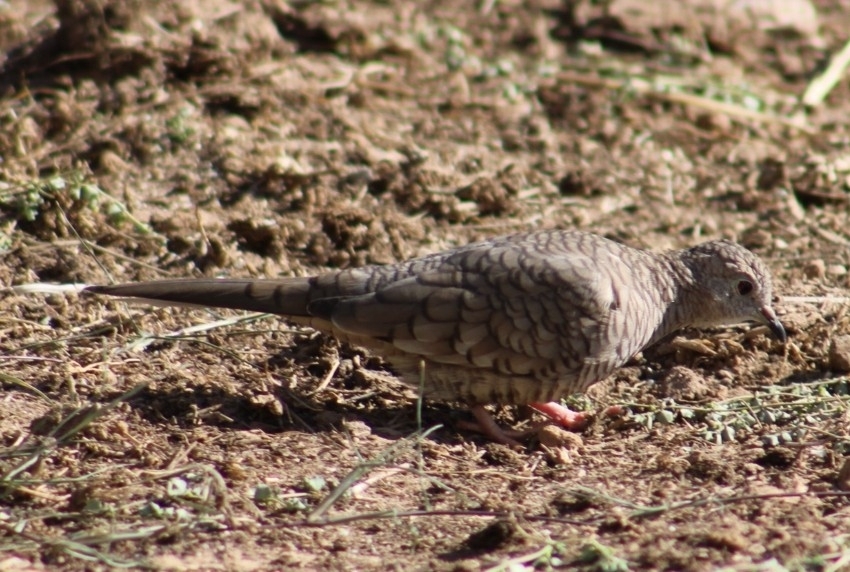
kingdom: Animalia
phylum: Chordata
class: Aves
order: Columbiformes
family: Columbidae
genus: Columbina
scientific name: Columbina inca
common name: Inca dove
